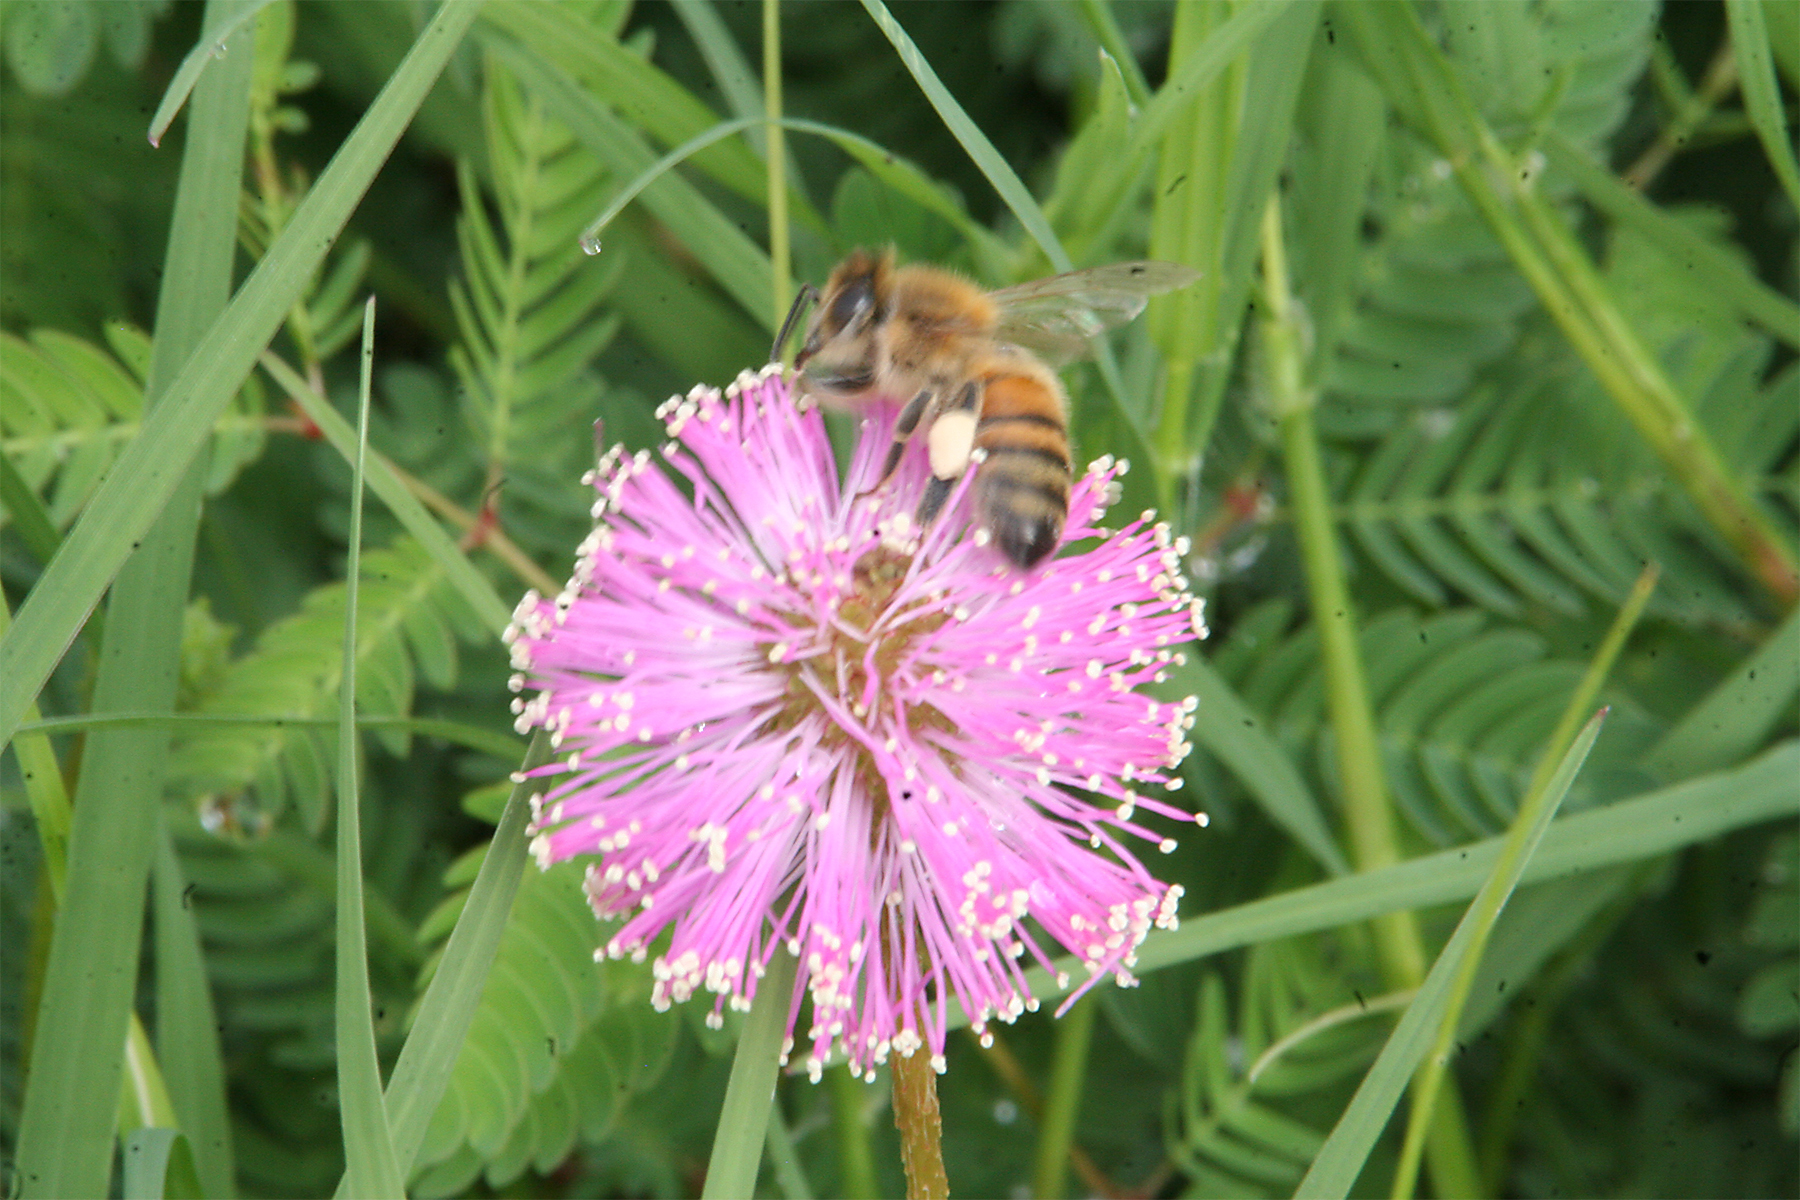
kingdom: Animalia
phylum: Arthropoda
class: Insecta
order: Hymenoptera
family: Apidae
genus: Apis
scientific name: Apis mellifera
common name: Honey bee
